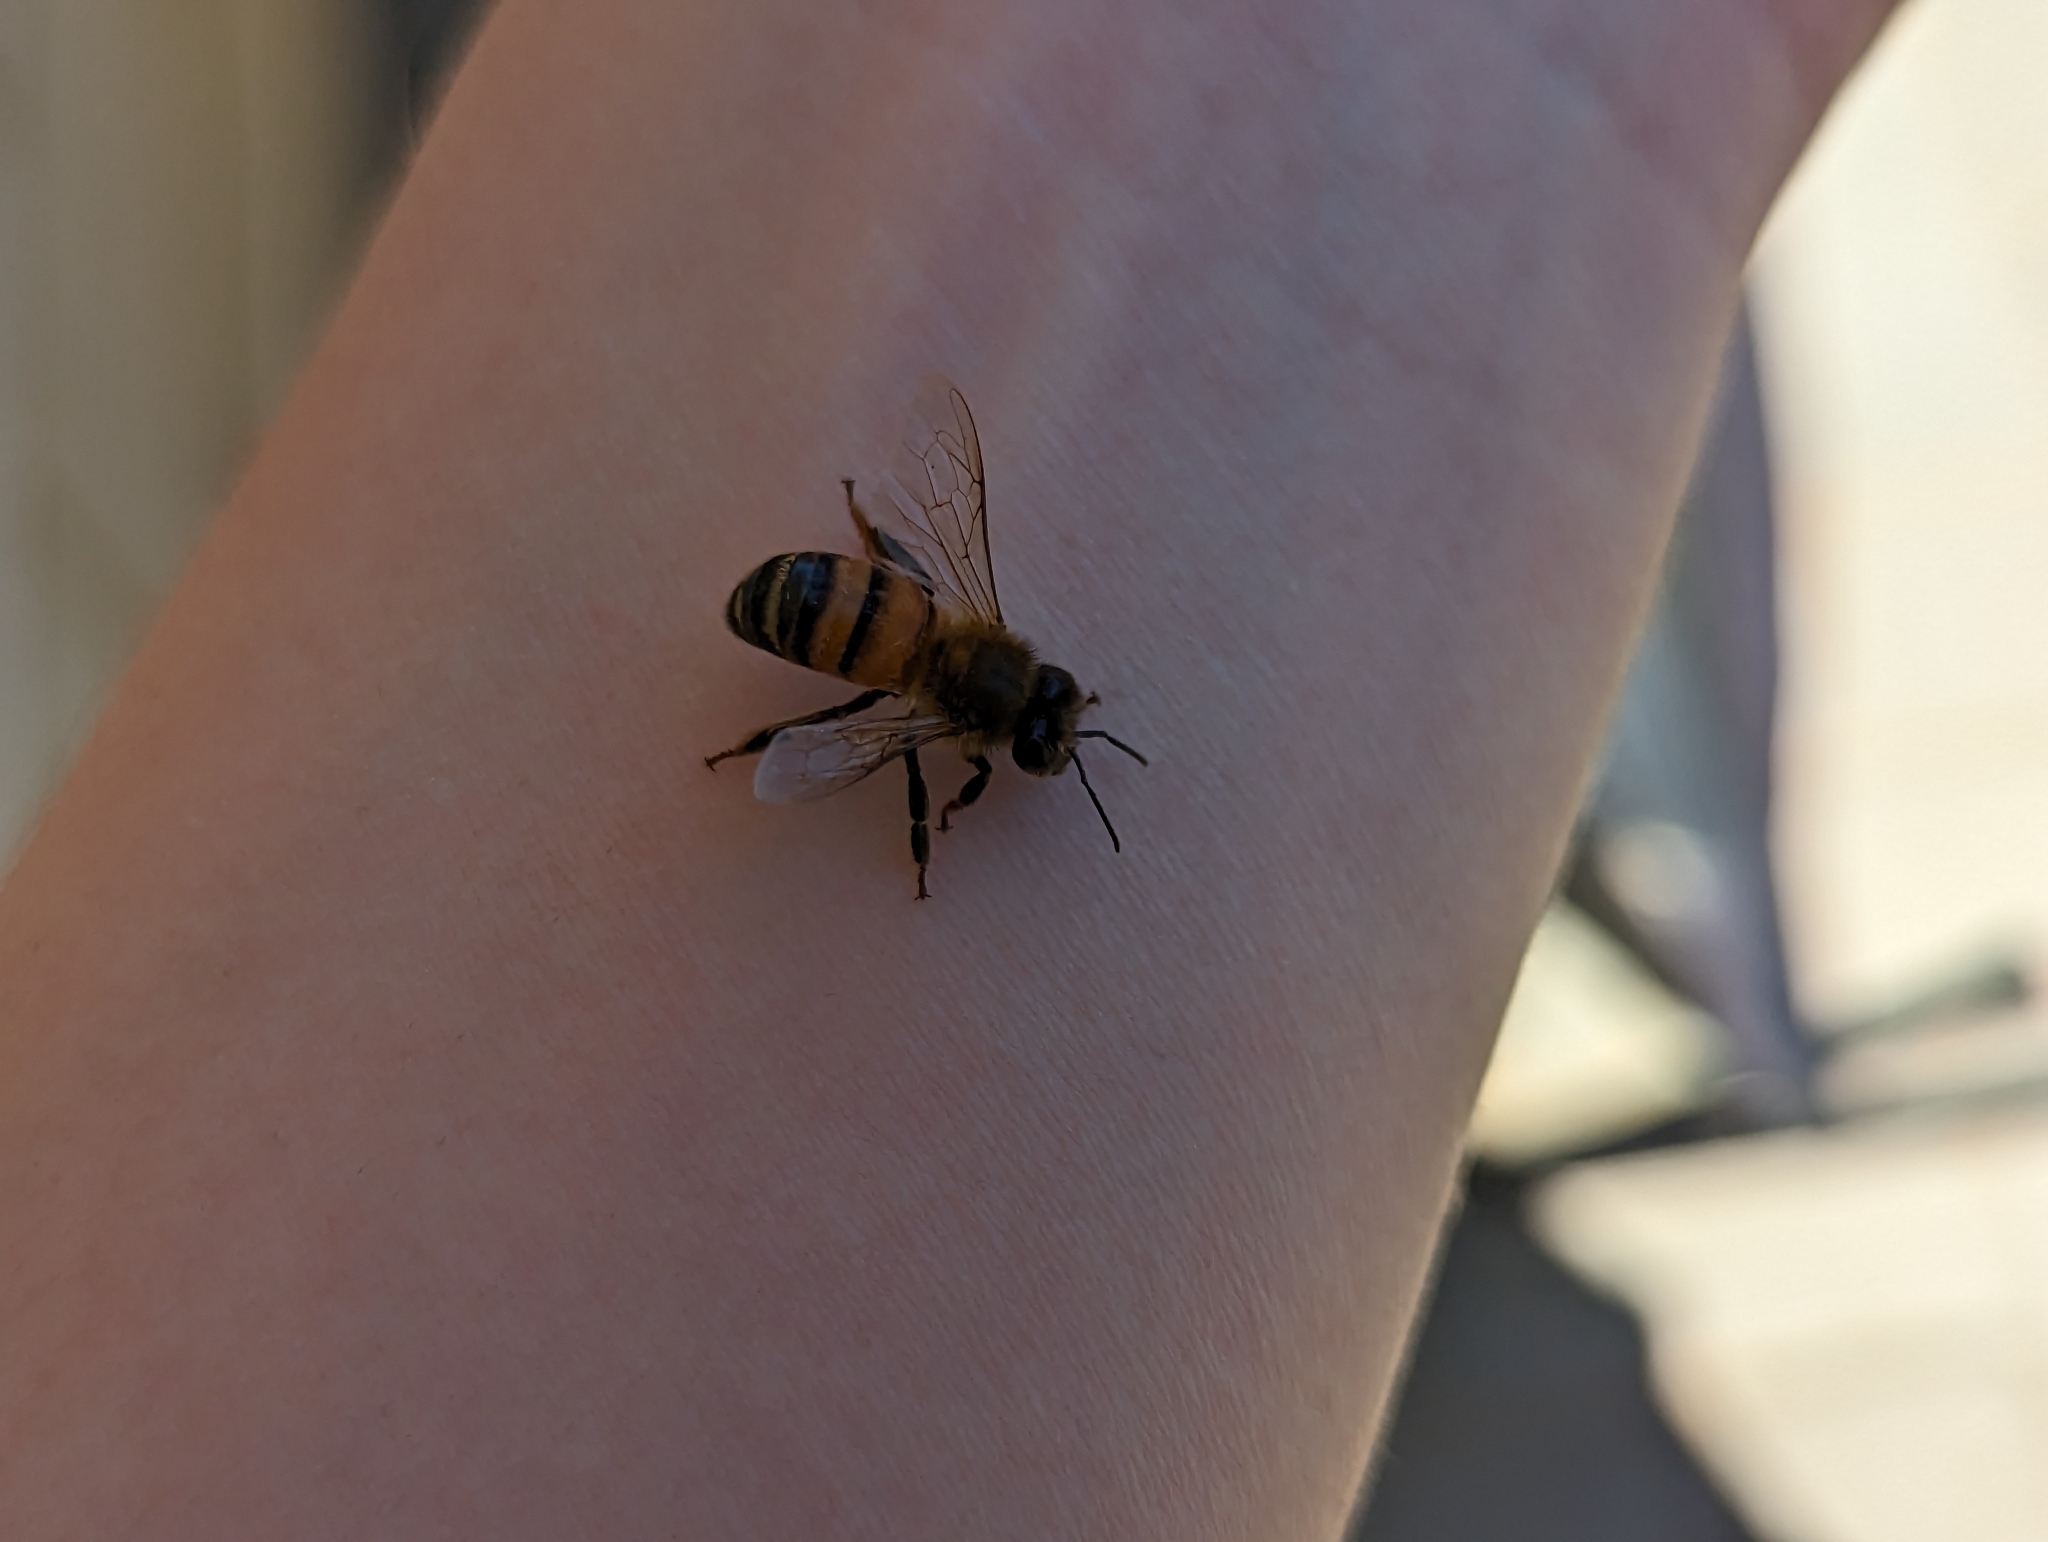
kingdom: Animalia
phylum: Arthropoda
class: Insecta
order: Hymenoptera
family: Apidae
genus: Apis
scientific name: Apis mellifera
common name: Honey bee
